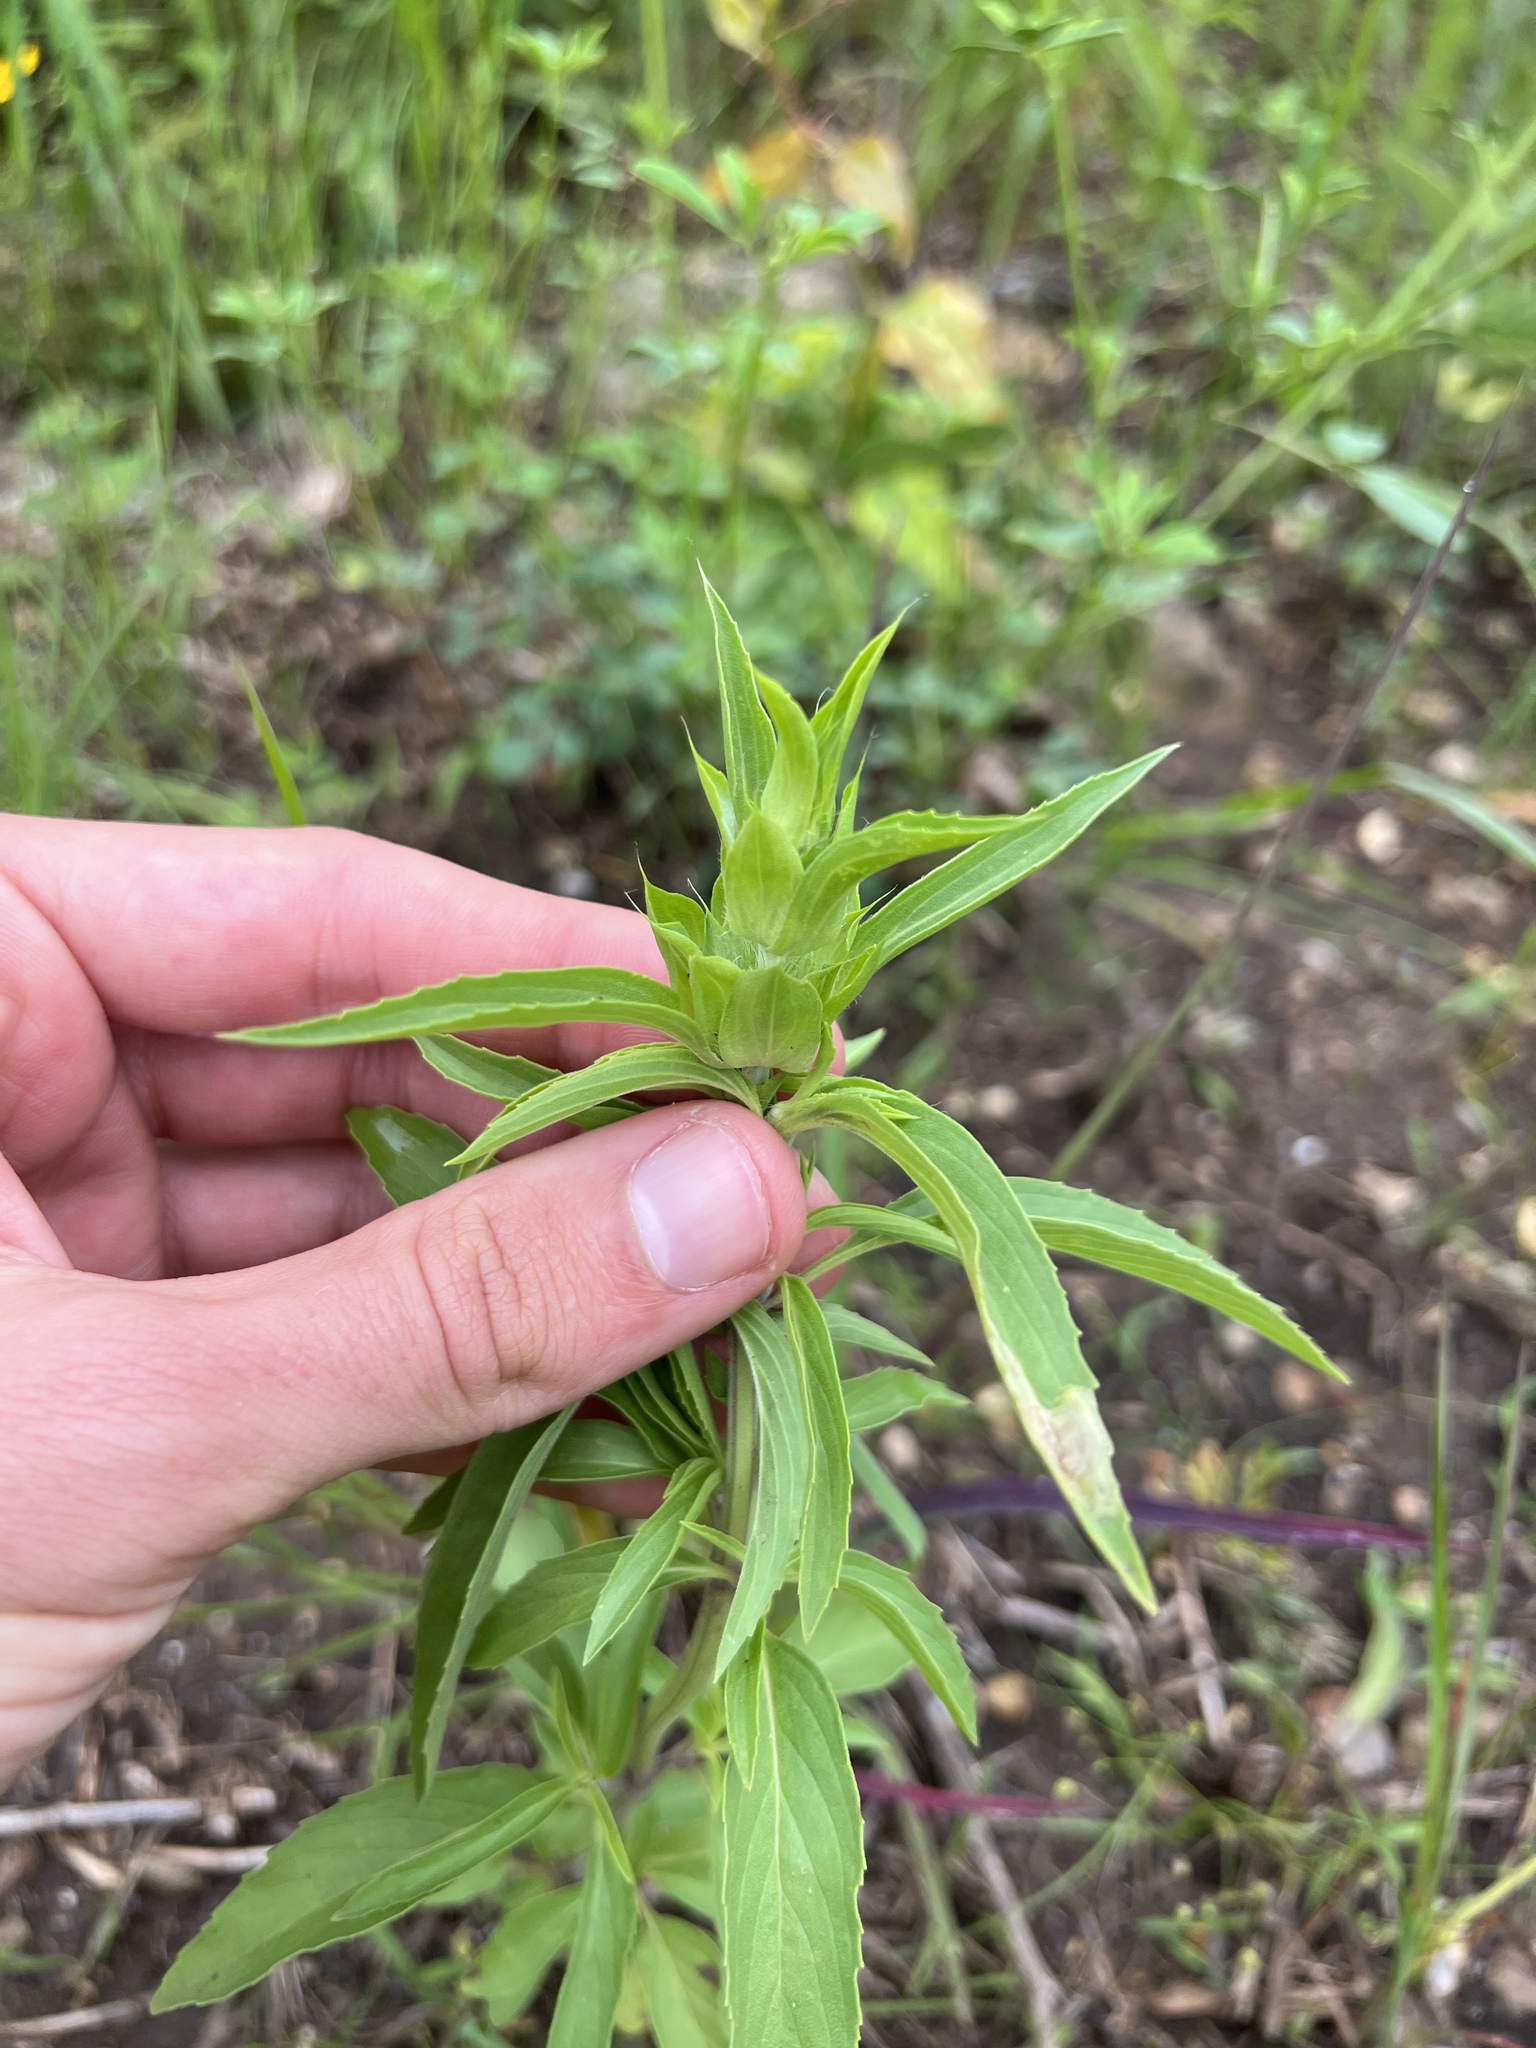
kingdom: Plantae
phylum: Tracheophyta
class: Magnoliopsida
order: Lamiales
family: Lamiaceae
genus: Monarda
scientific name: Monarda citriodora
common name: Lemon beebalm
